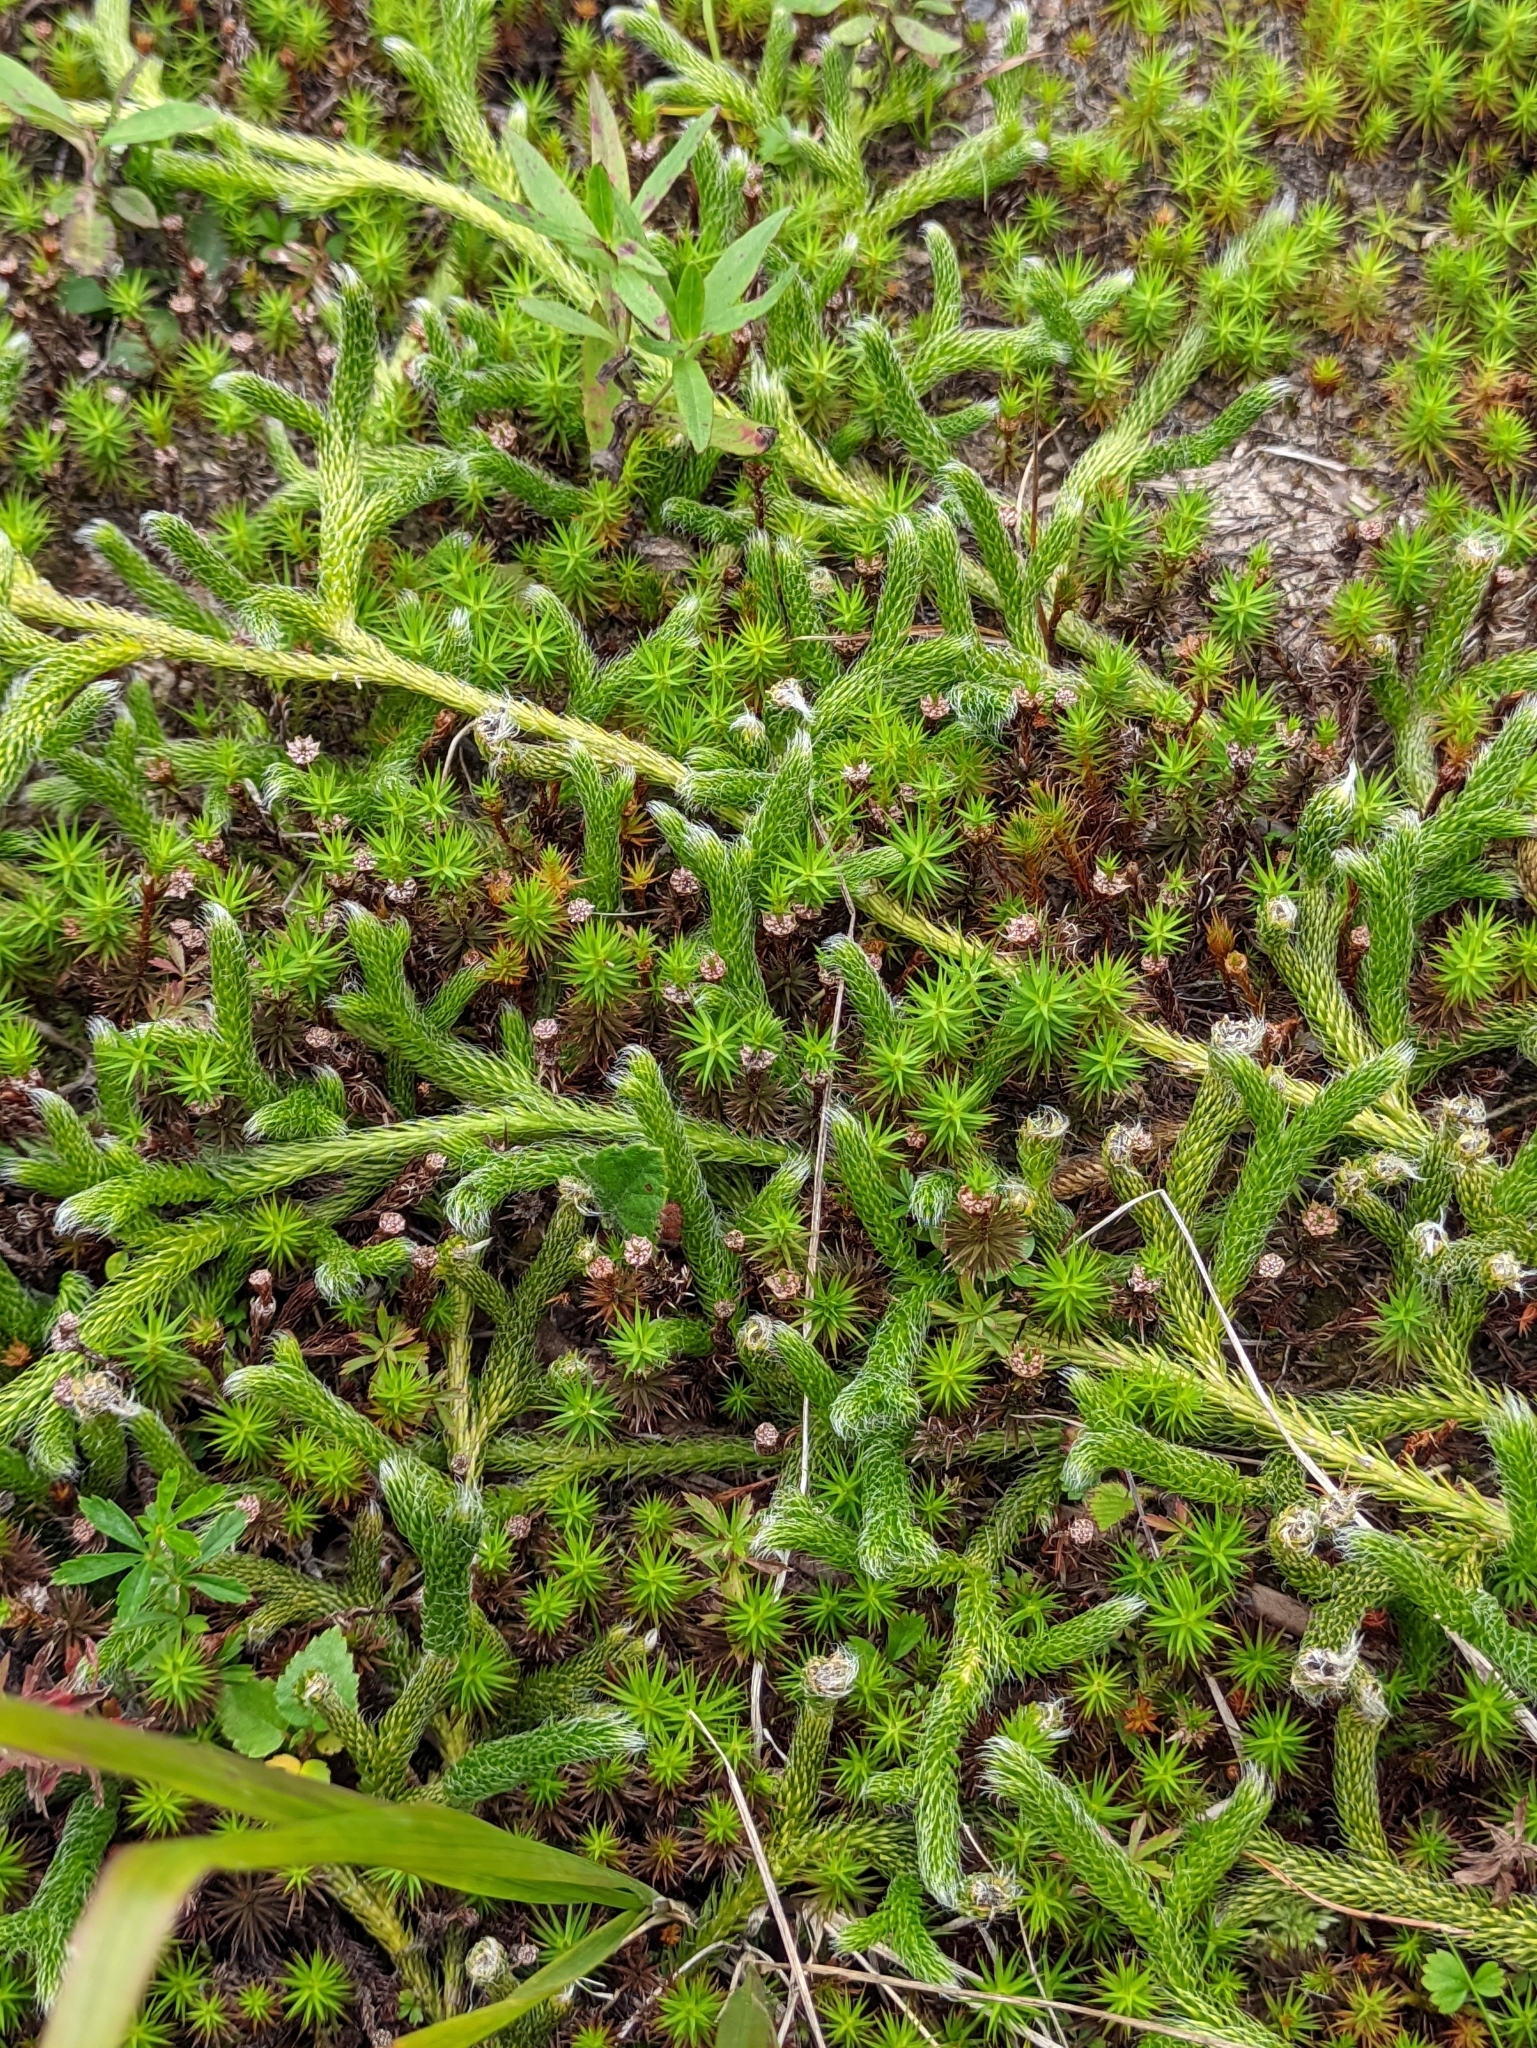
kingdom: Plantae
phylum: Tracheophyta
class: Lycopodiopsida
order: Lycopodiales
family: Lycopodiaceae
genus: Lycopodium
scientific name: Lycopodium clavatum
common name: Stag's-horn clubmoss
